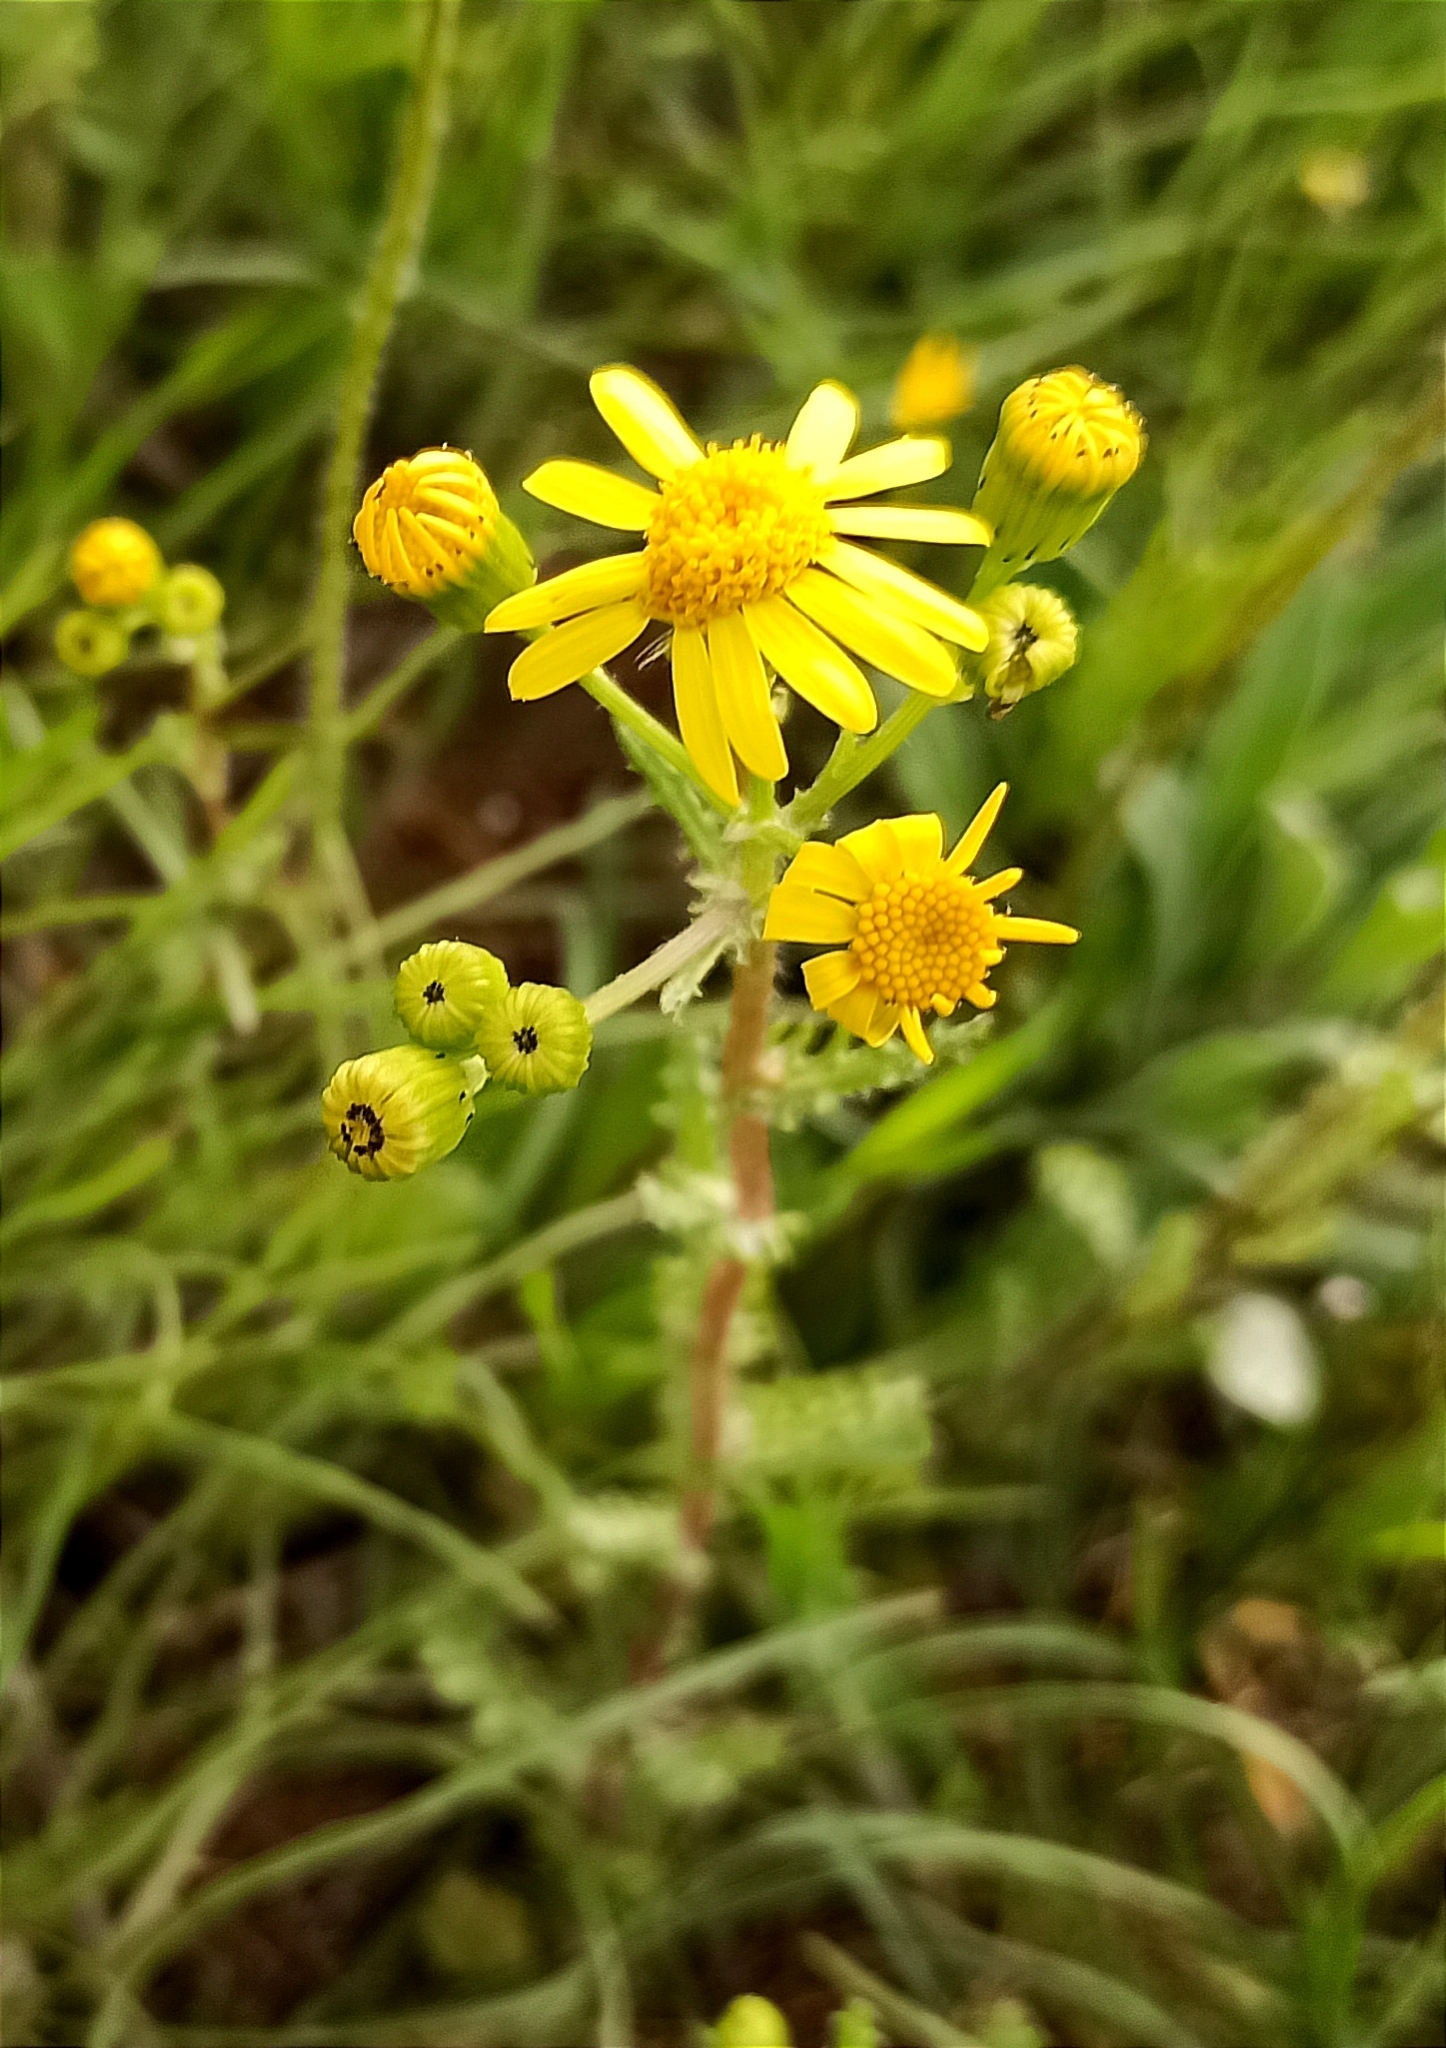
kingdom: Plantae
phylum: Tracheophyta
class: Magnoliopsida
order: Asterales
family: Asteraceae
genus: Senecio
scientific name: Senecio vernalis
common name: Eastern groundsel
